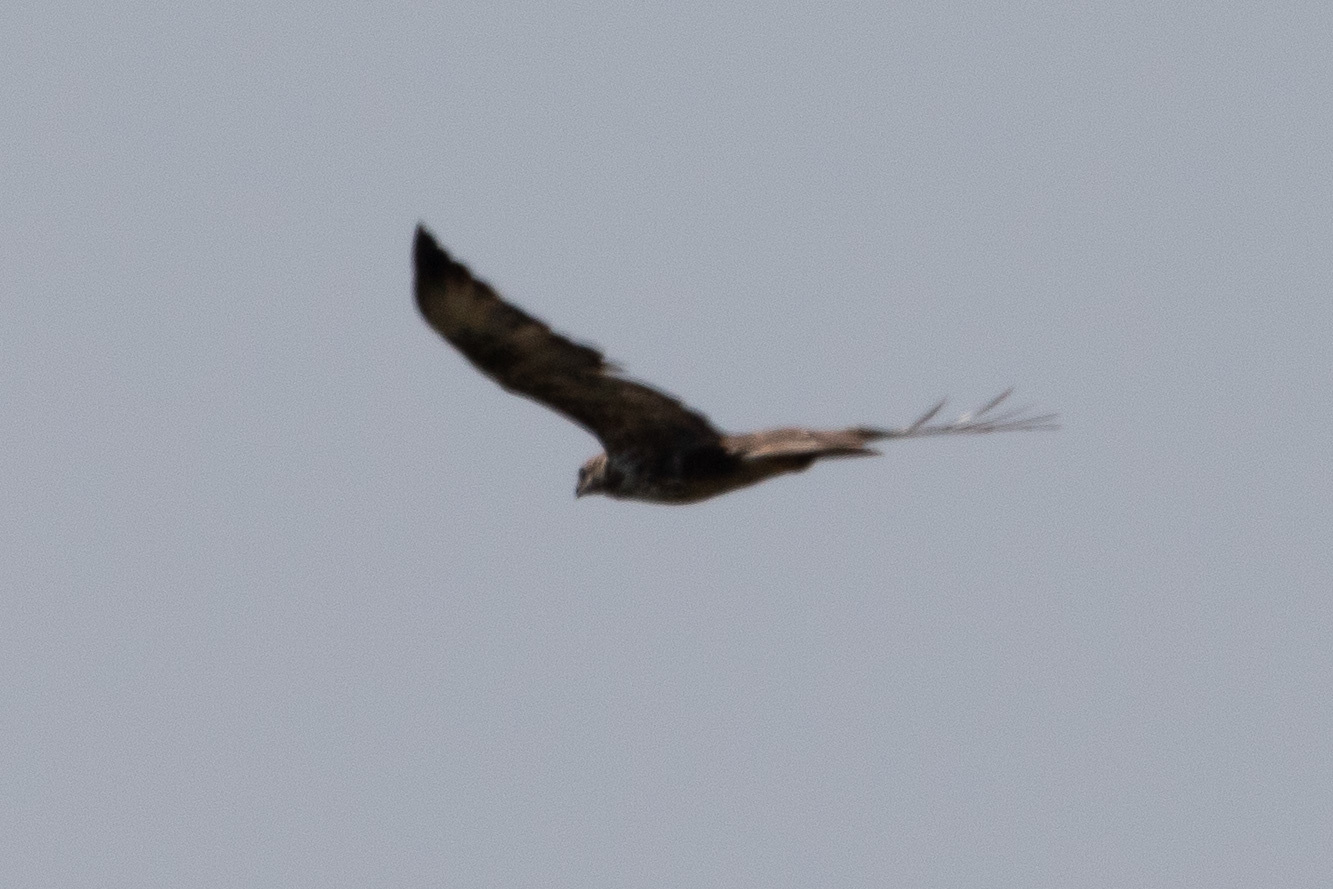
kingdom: Animalia
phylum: Chordata
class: Aves
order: Accipitriformes
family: Accipitridae
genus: Buteo
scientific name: Buteo buteo
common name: Common buzzard
